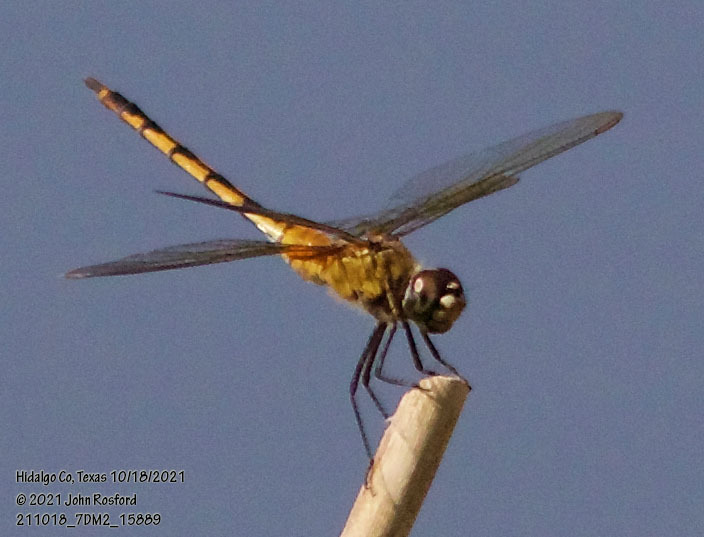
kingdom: Animalia
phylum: Arthropoda
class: Insecta
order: Odonata
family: Libellulidae
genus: Brachymesia
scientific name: Brachymesia herbida
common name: Tawny pennant
